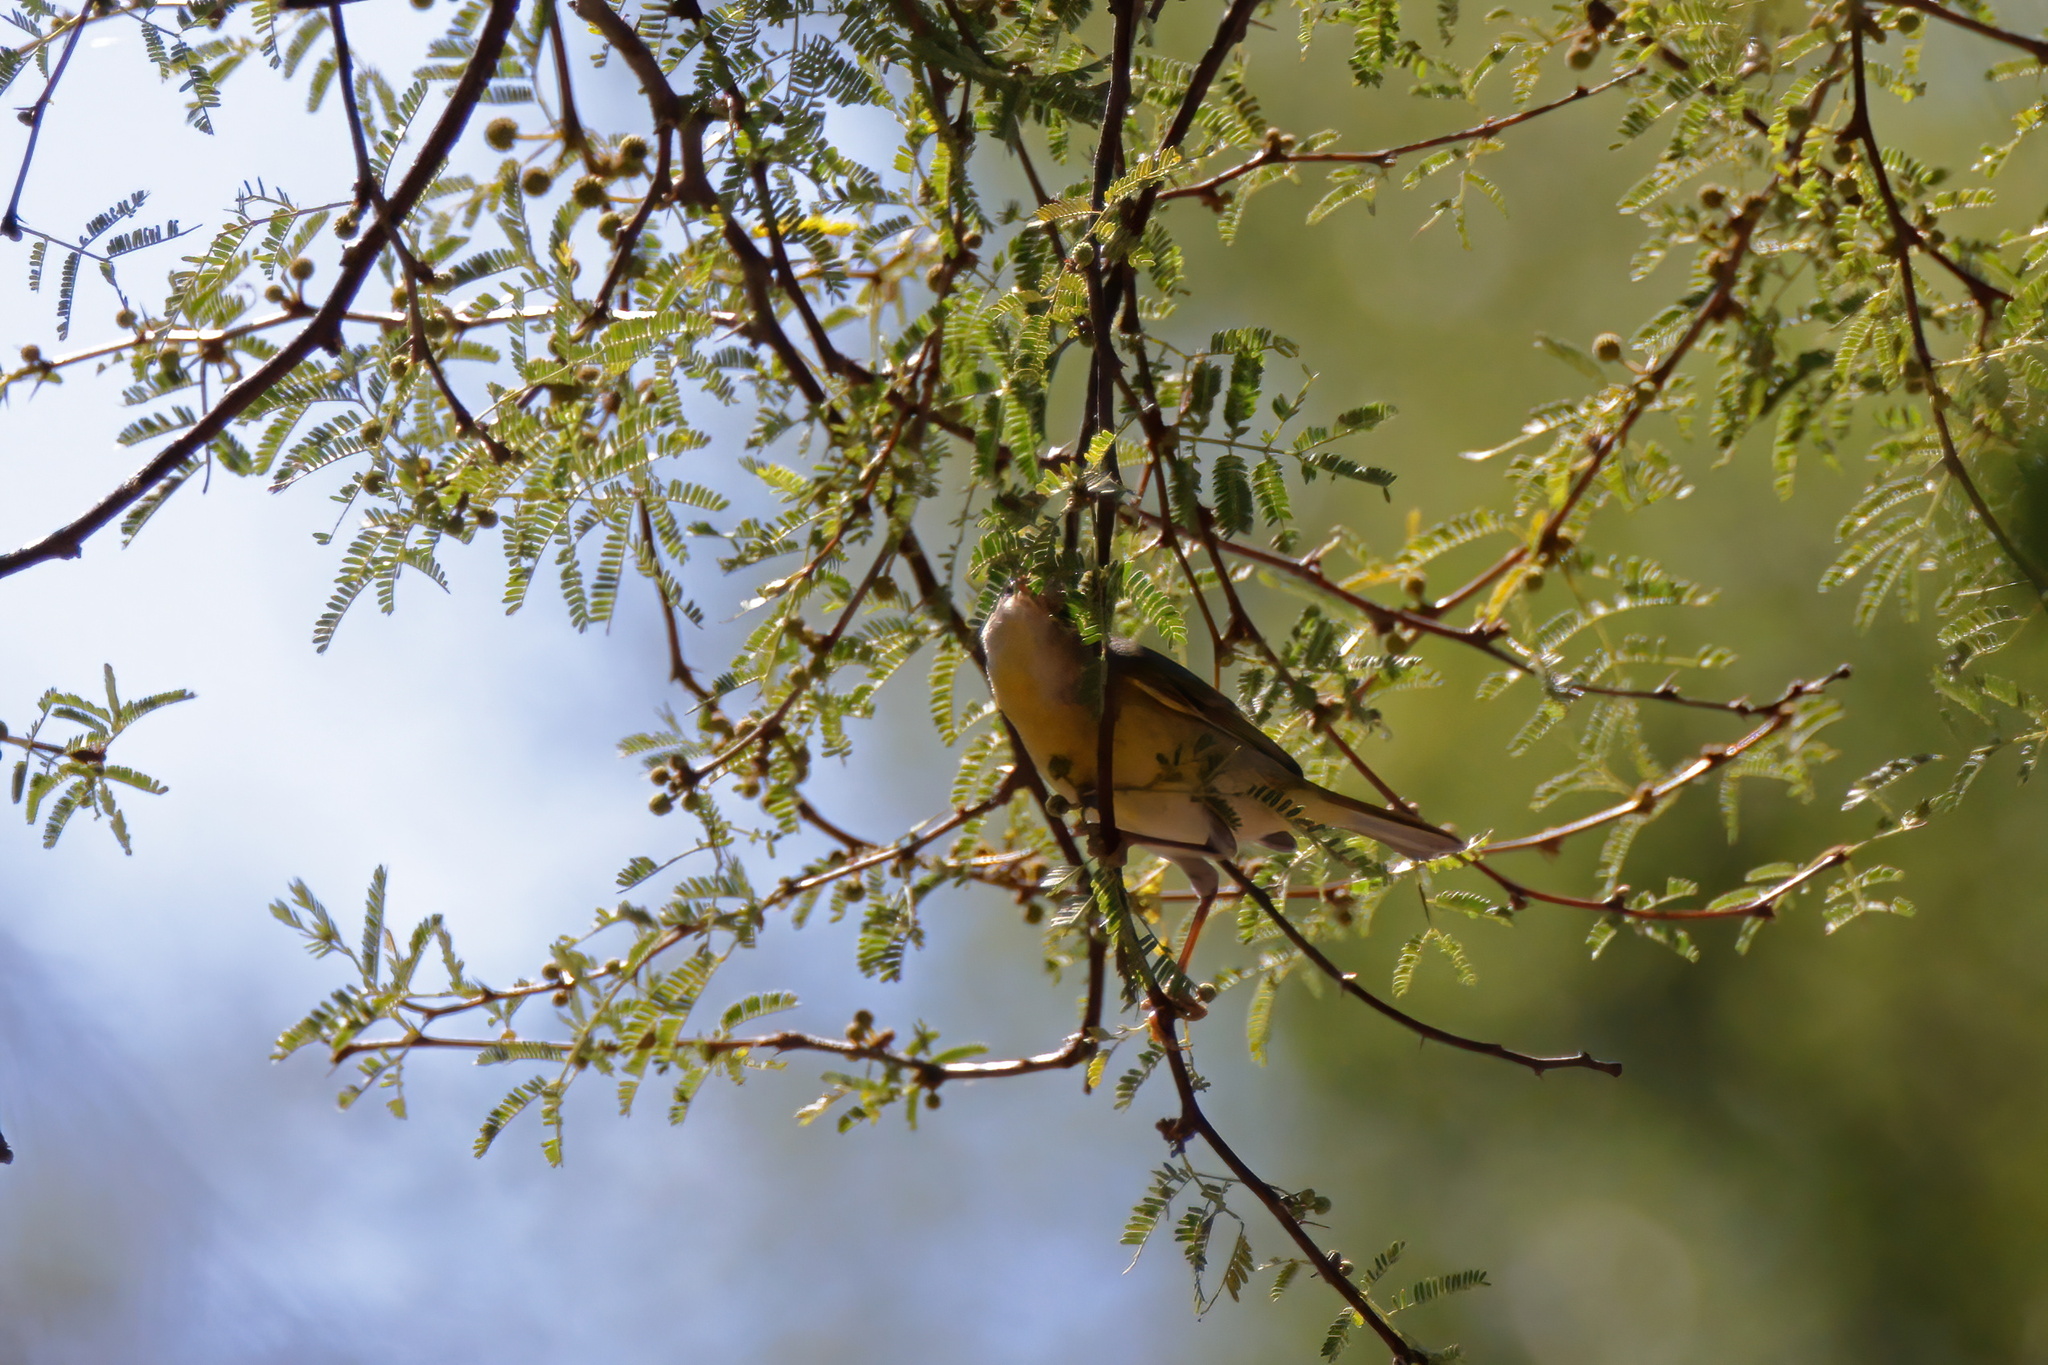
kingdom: Animalia
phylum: Chordata
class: Aves
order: Passeriformes
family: Parulidae
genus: Leiothlypis
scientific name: Leiothlypis ruficapilla
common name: Nashville warbler
